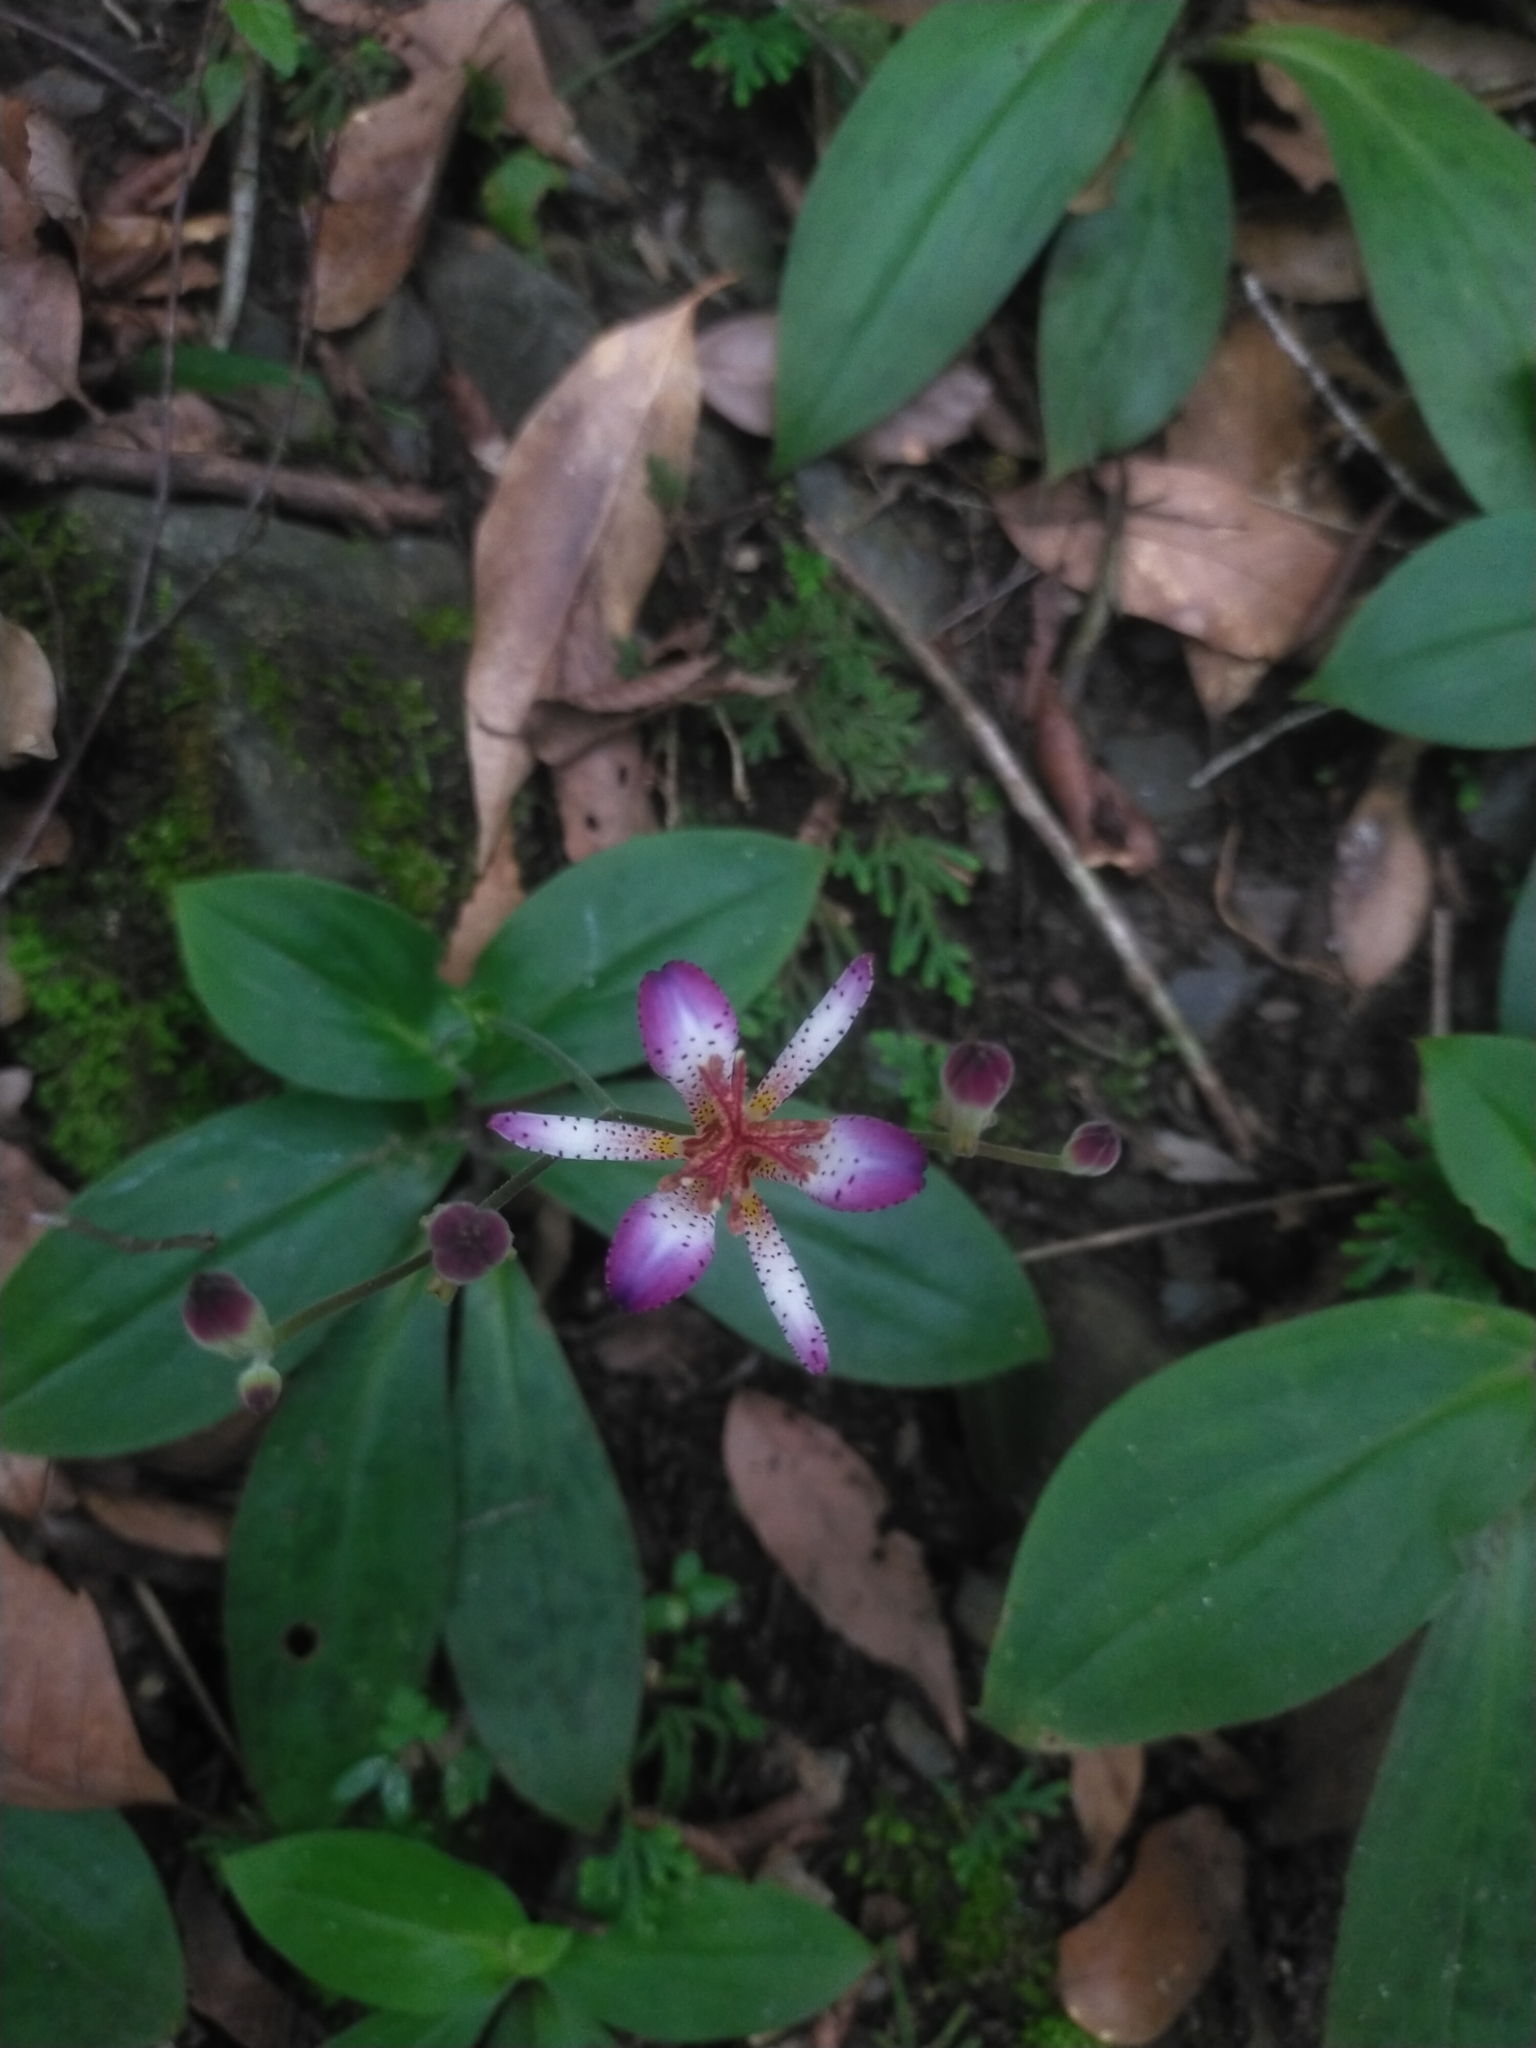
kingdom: Plantae
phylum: Tracheophyta
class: Liliopsida
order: Liliales
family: Liliaceae
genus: Tricyrtis
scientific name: Tricyrtis formosana
